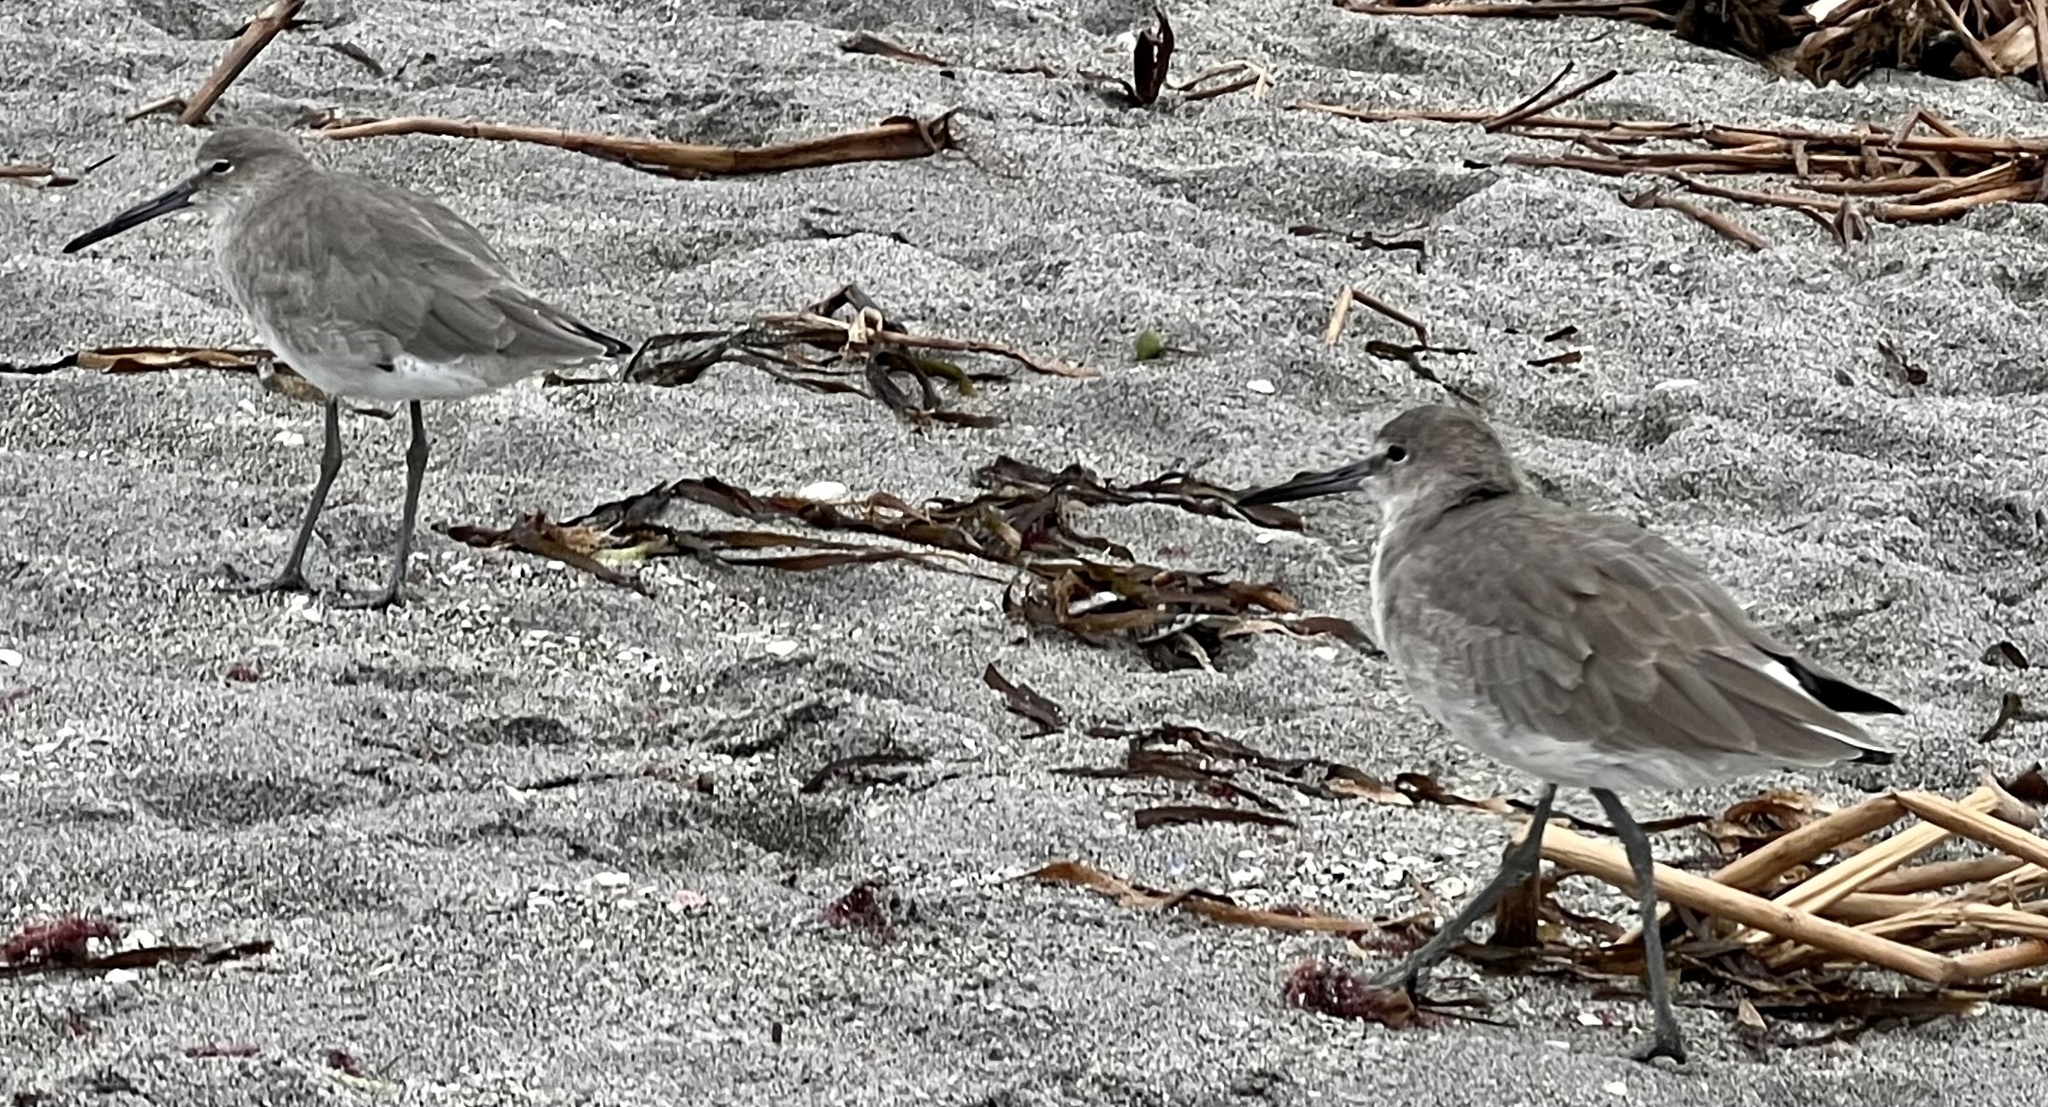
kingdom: Animalia
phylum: Chordata
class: Aves
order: Charadriiformes
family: Scolopacidae
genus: Tringa
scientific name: Tringa semipalmata
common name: Willet
